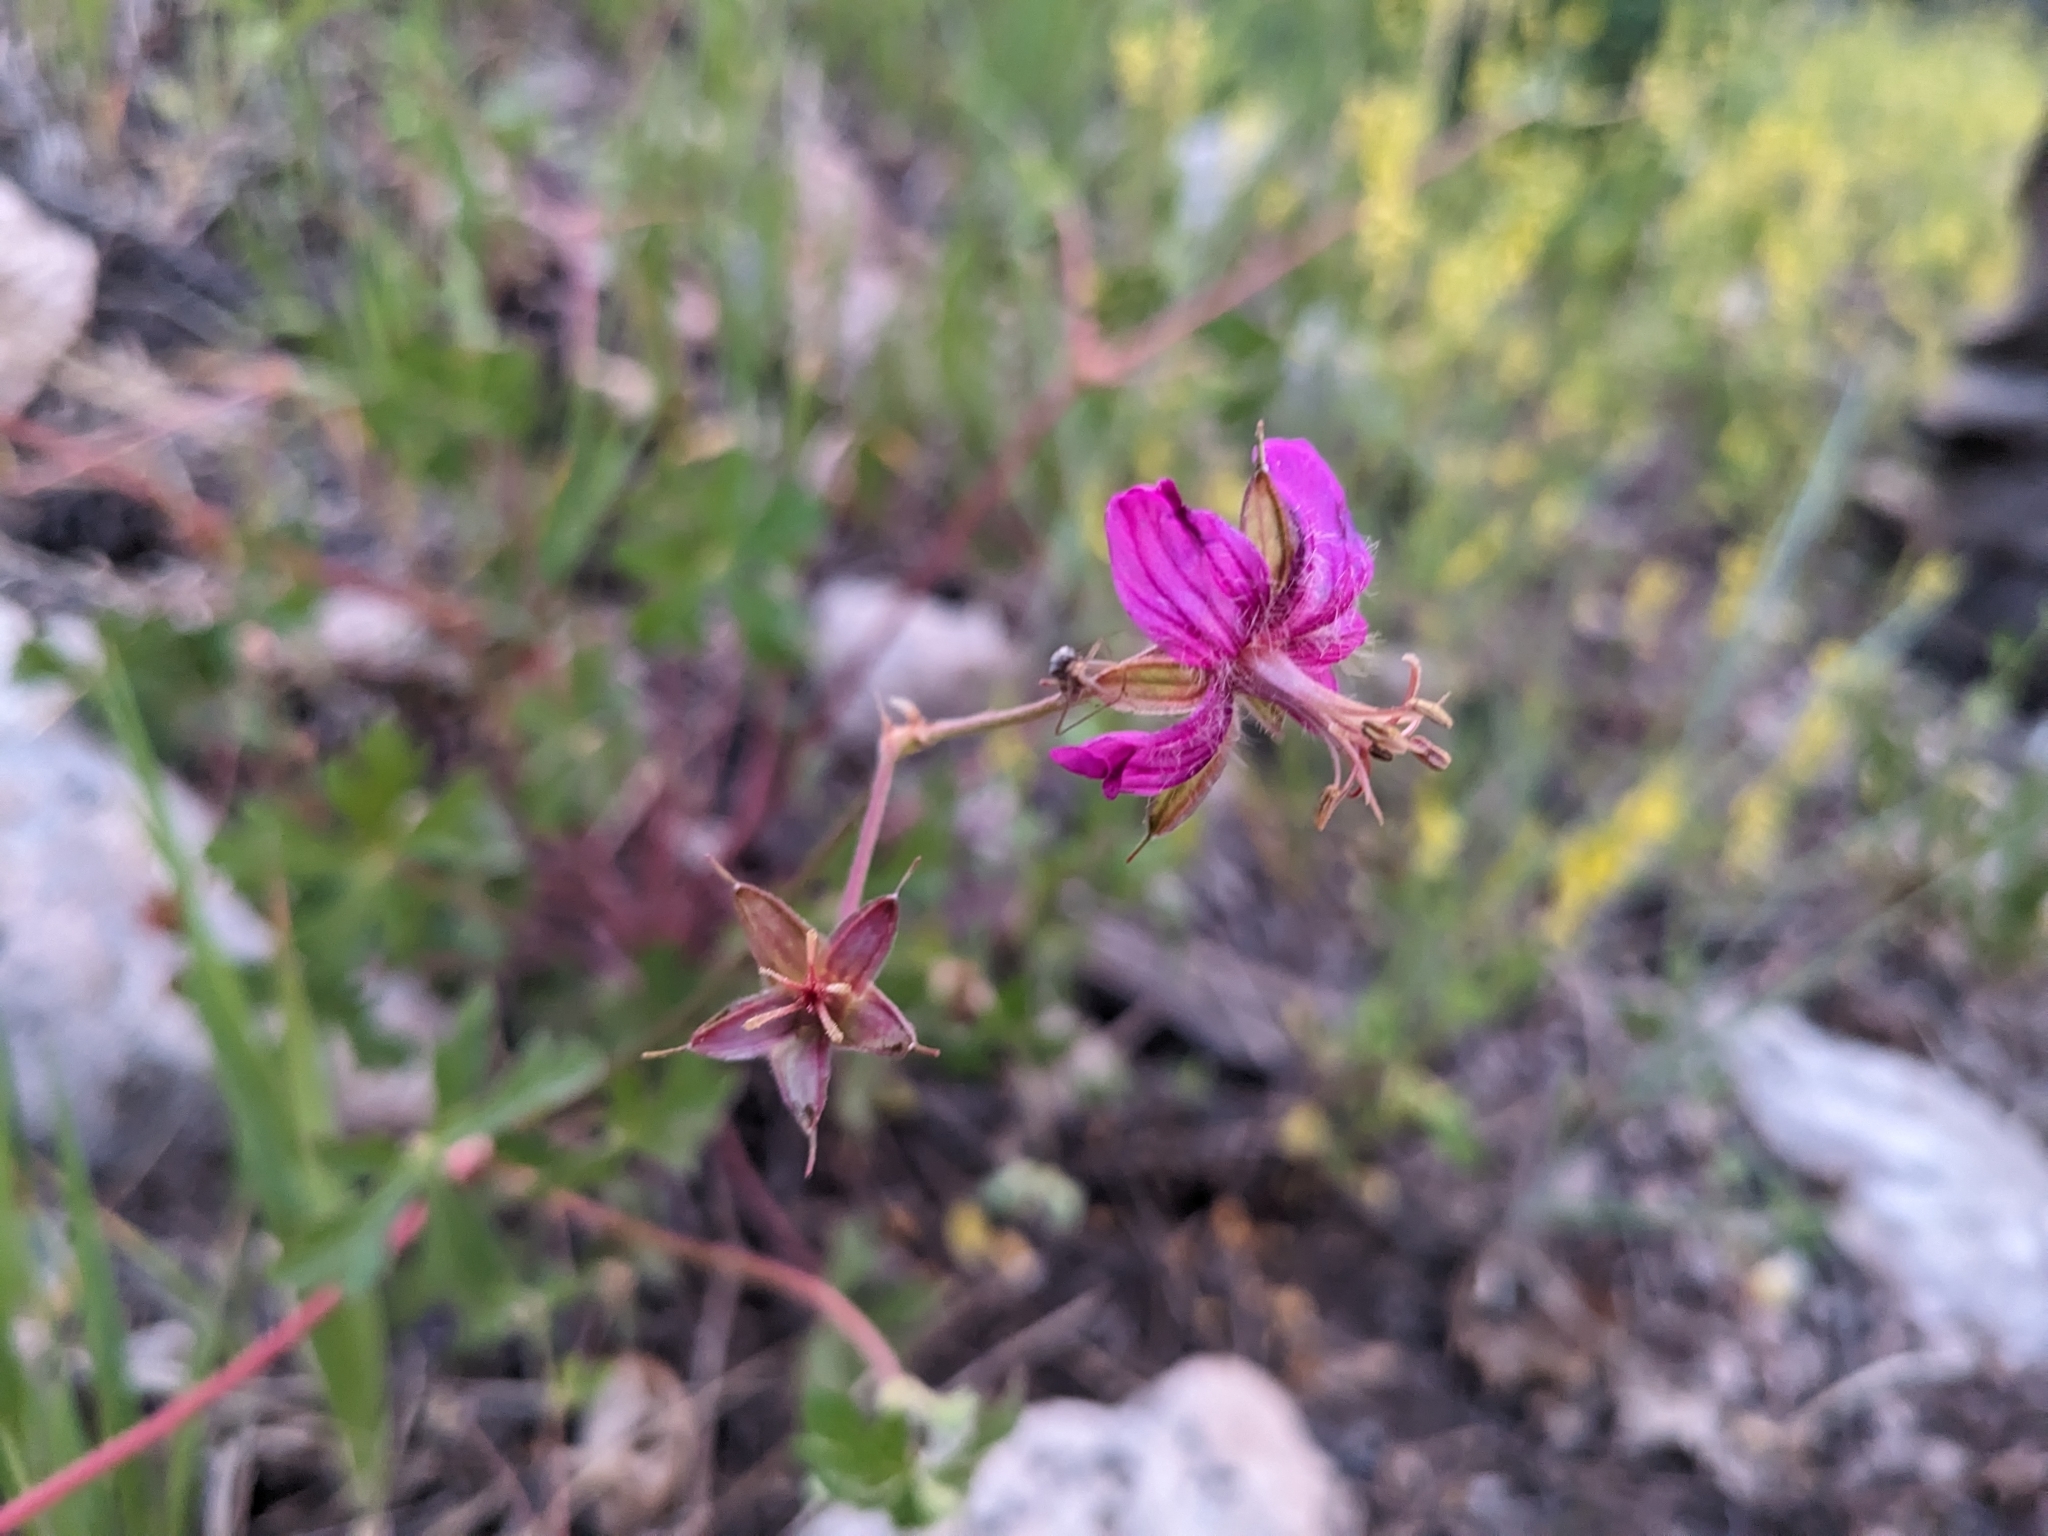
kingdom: Plantae
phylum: Tracheophyta
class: Magnoliopsida
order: Geraniales
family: Geraniaceae
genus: Geranium
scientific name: Geranium caespitosum
